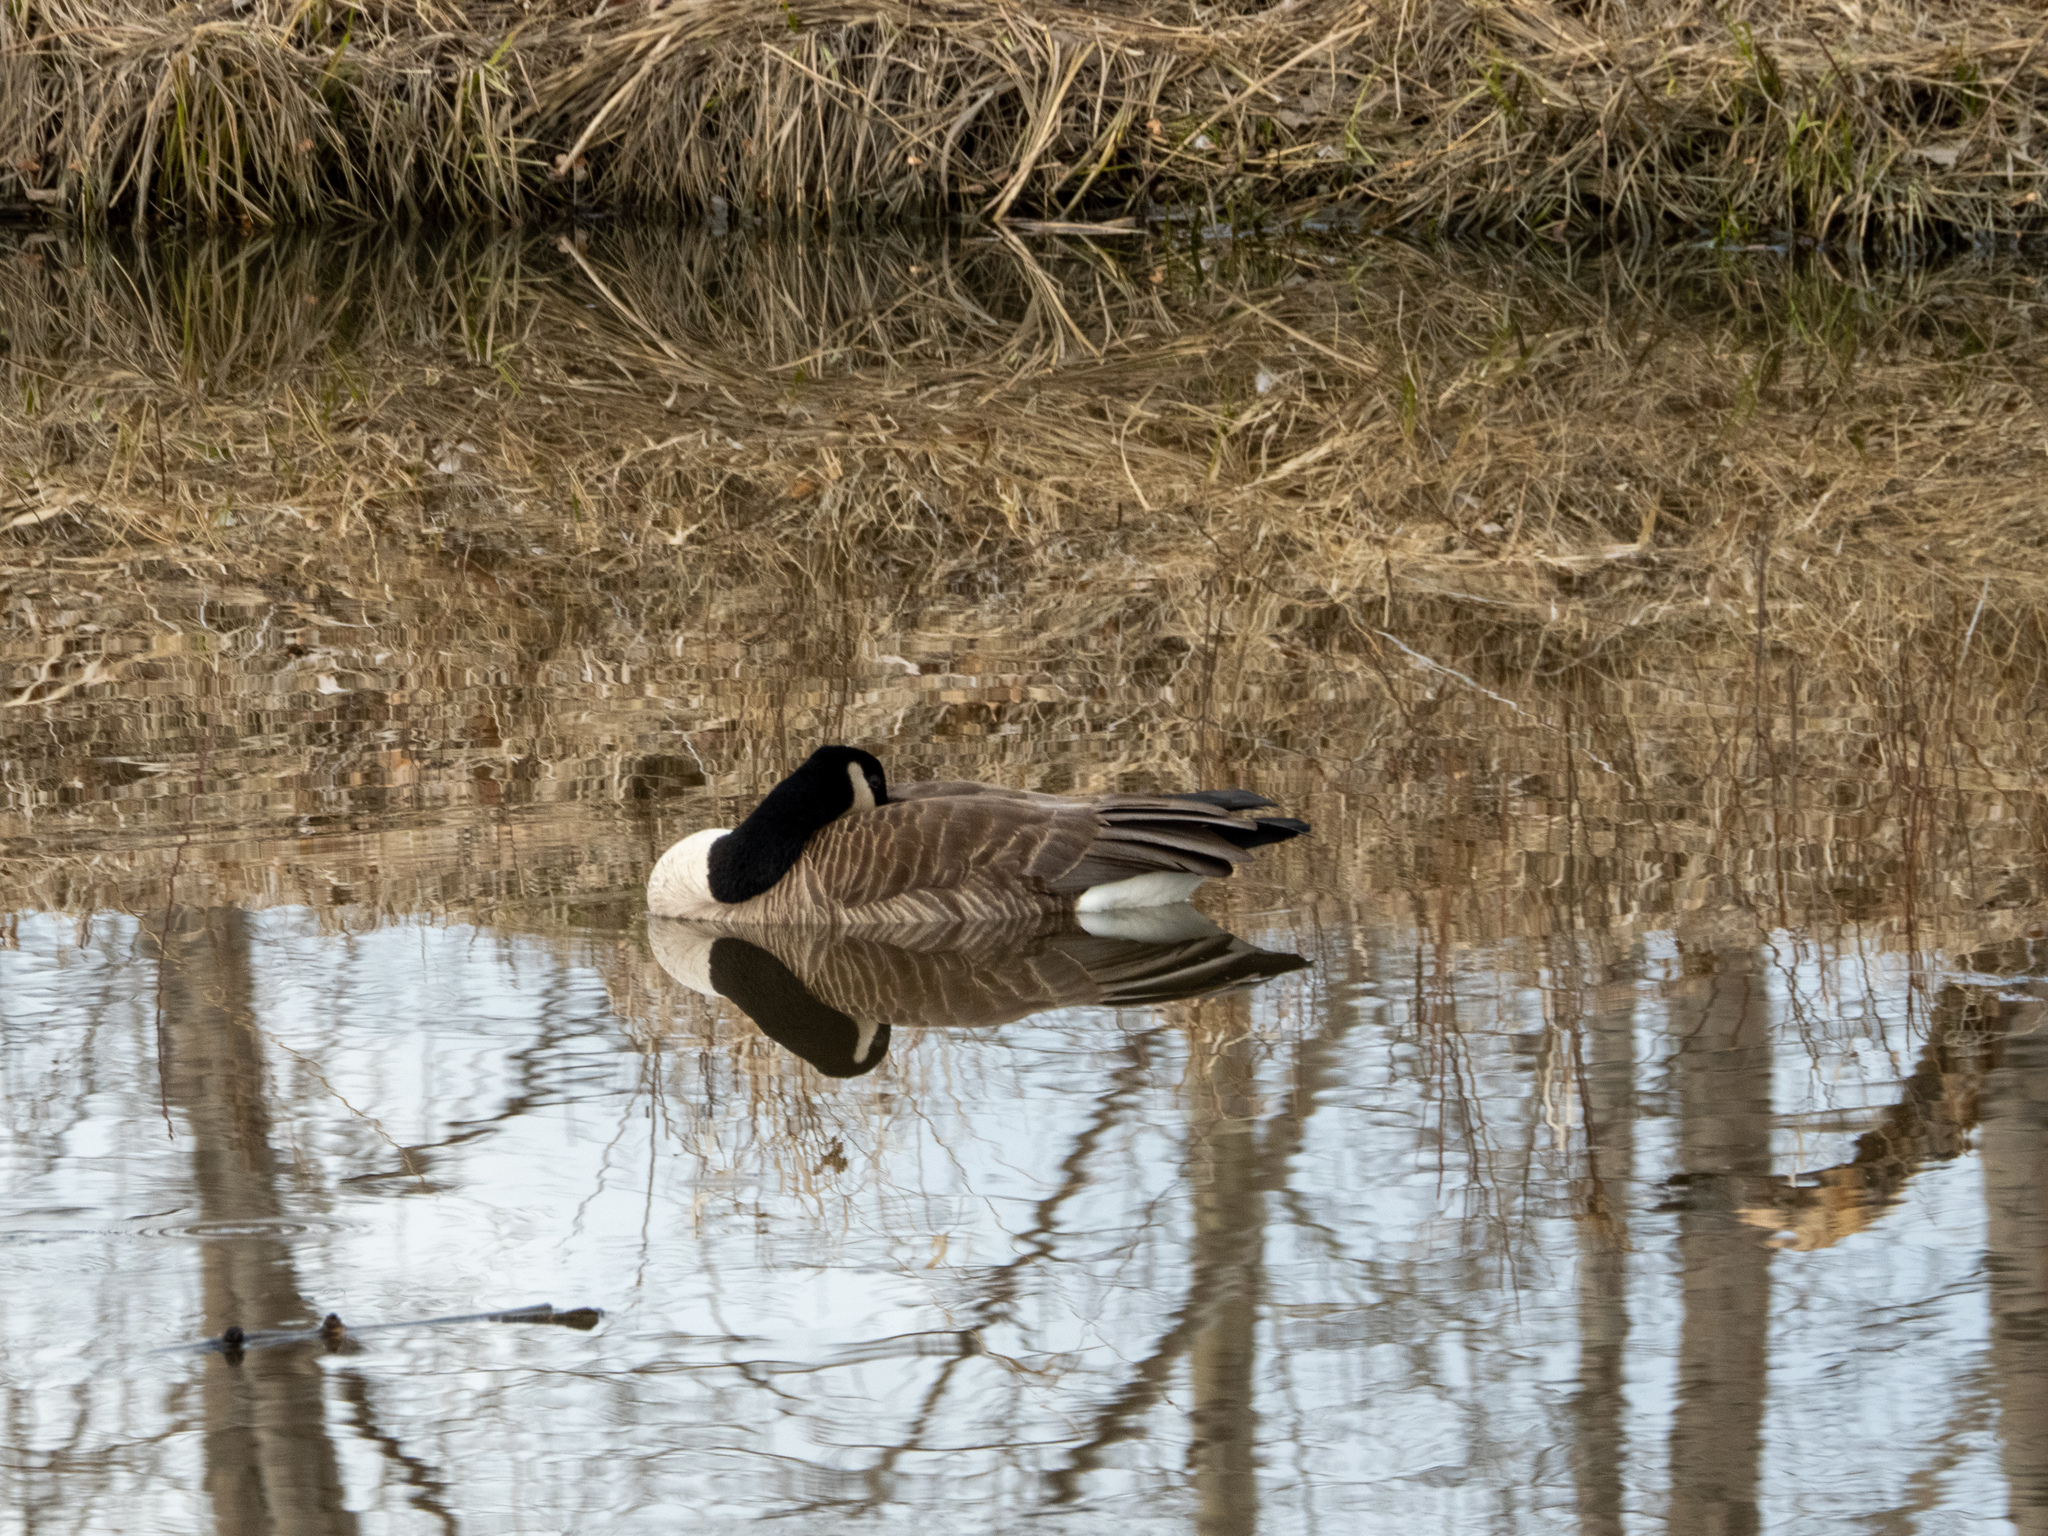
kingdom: Animalia
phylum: Chordata
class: Aves
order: Anseriformes
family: Anatidae
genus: Branta
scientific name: Branta canadensis
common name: Canada goose
